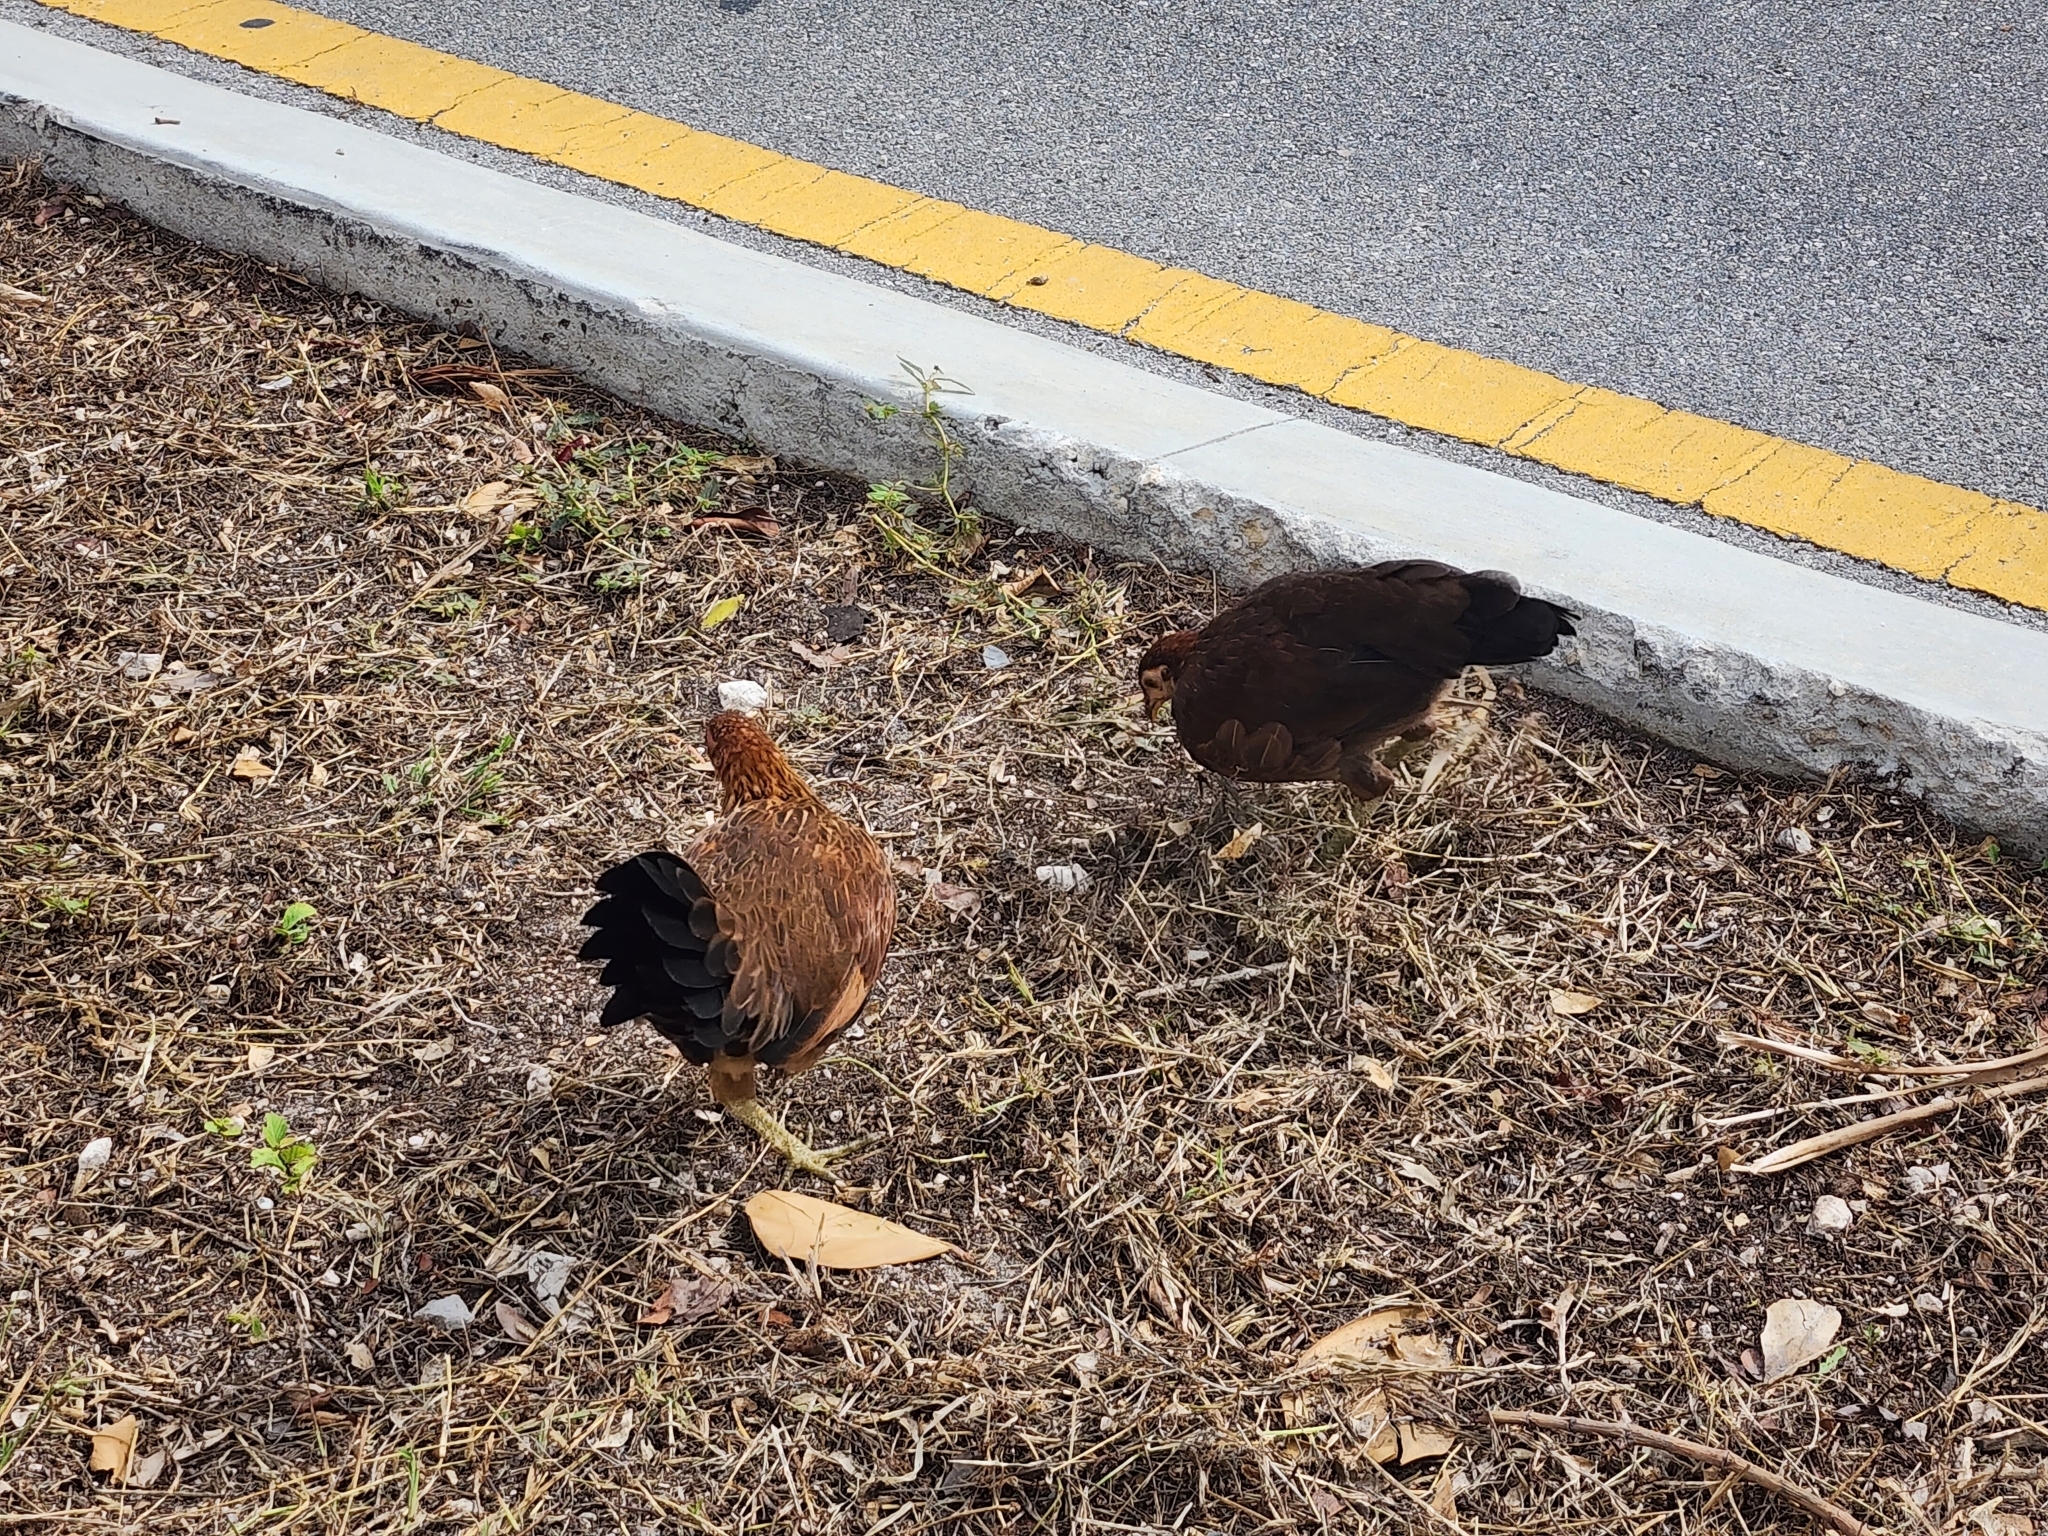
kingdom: Animalia
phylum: Chordata
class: Aves
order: Galliformes
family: Phasianidae
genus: Gallus
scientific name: Gallus gallus
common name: Red junglefowl
